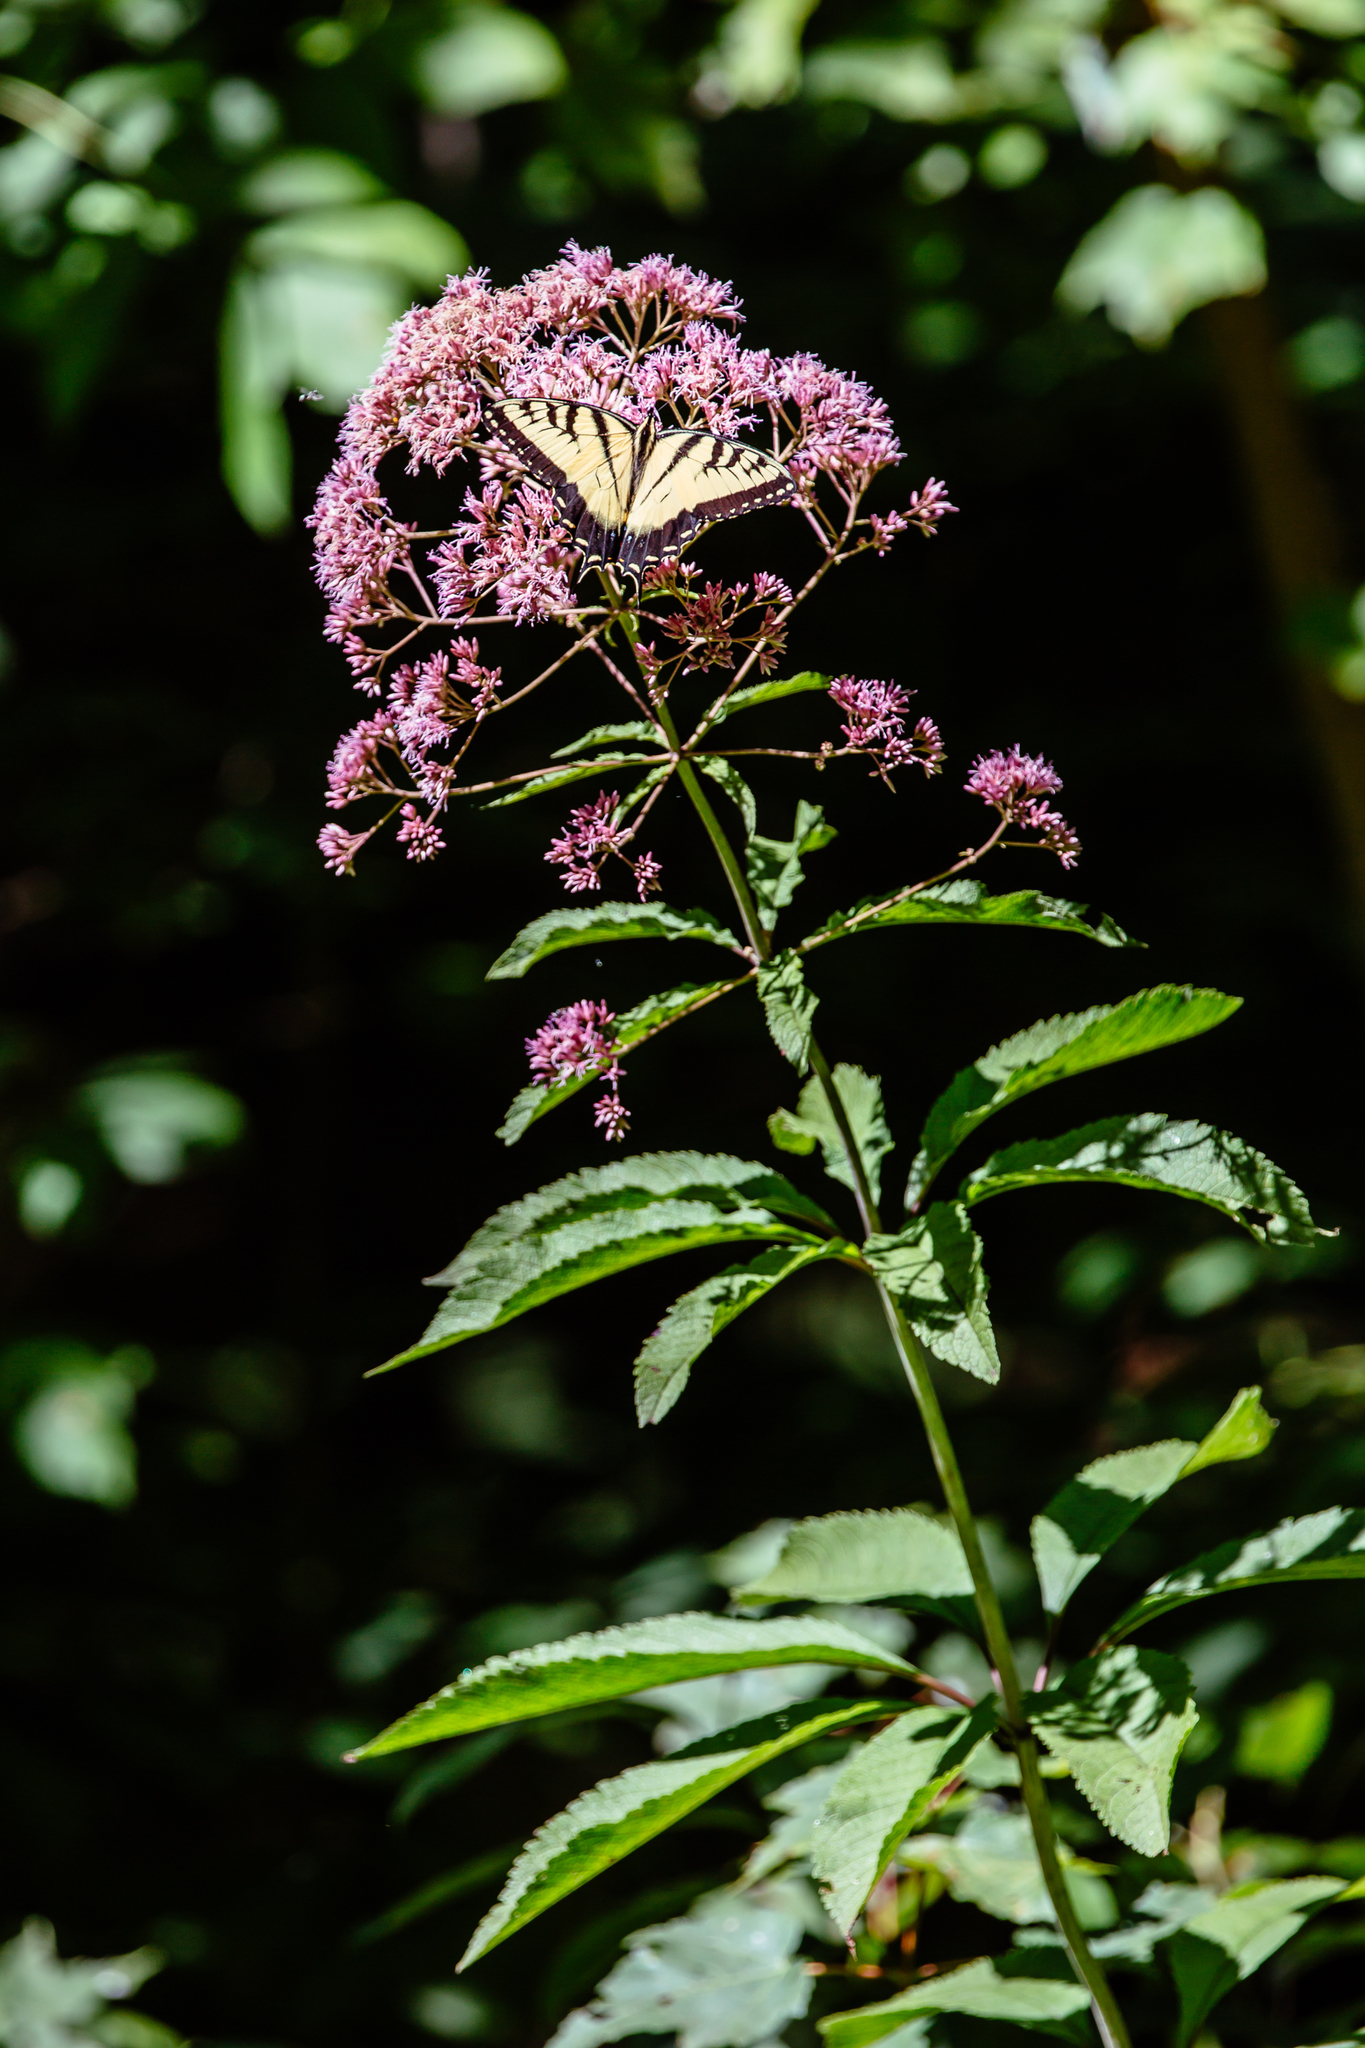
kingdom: Animalia
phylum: Arthropoda
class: Insecta
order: Lepidoptera
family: Papilionidae
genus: Papilio
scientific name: Papilio glaucus
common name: Tiger swallowtail
